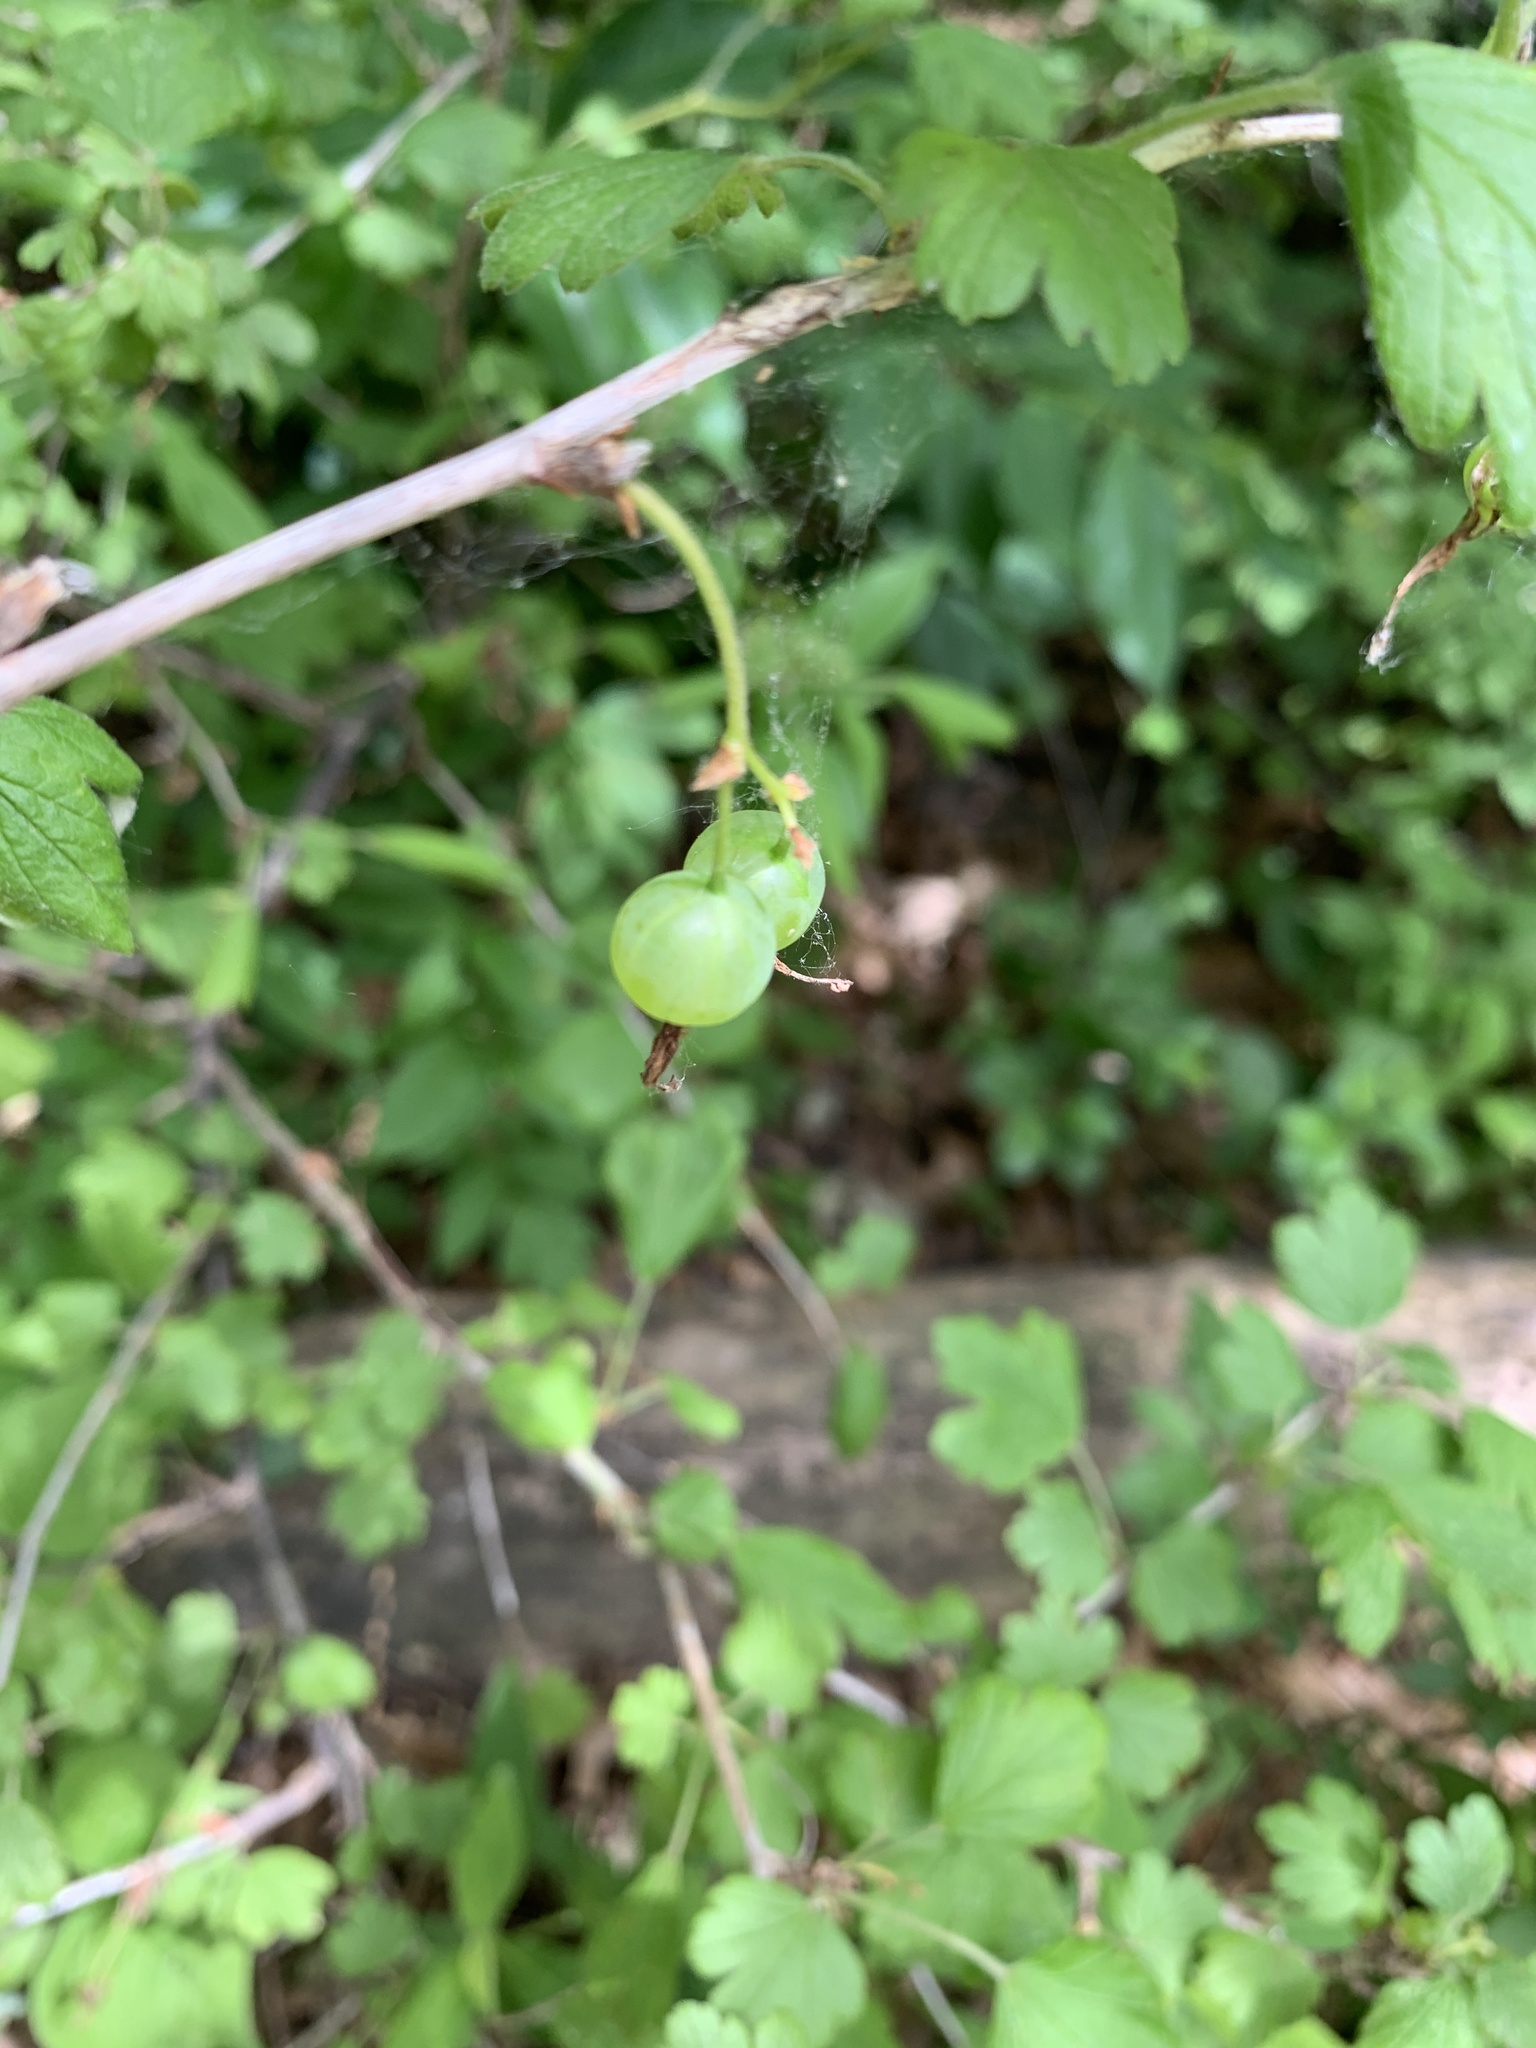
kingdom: Plantae
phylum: Tracheophyta
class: Magnoliopsida
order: Saxifragales
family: Grossulariaceae
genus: Ribes
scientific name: Ribes missouriense
